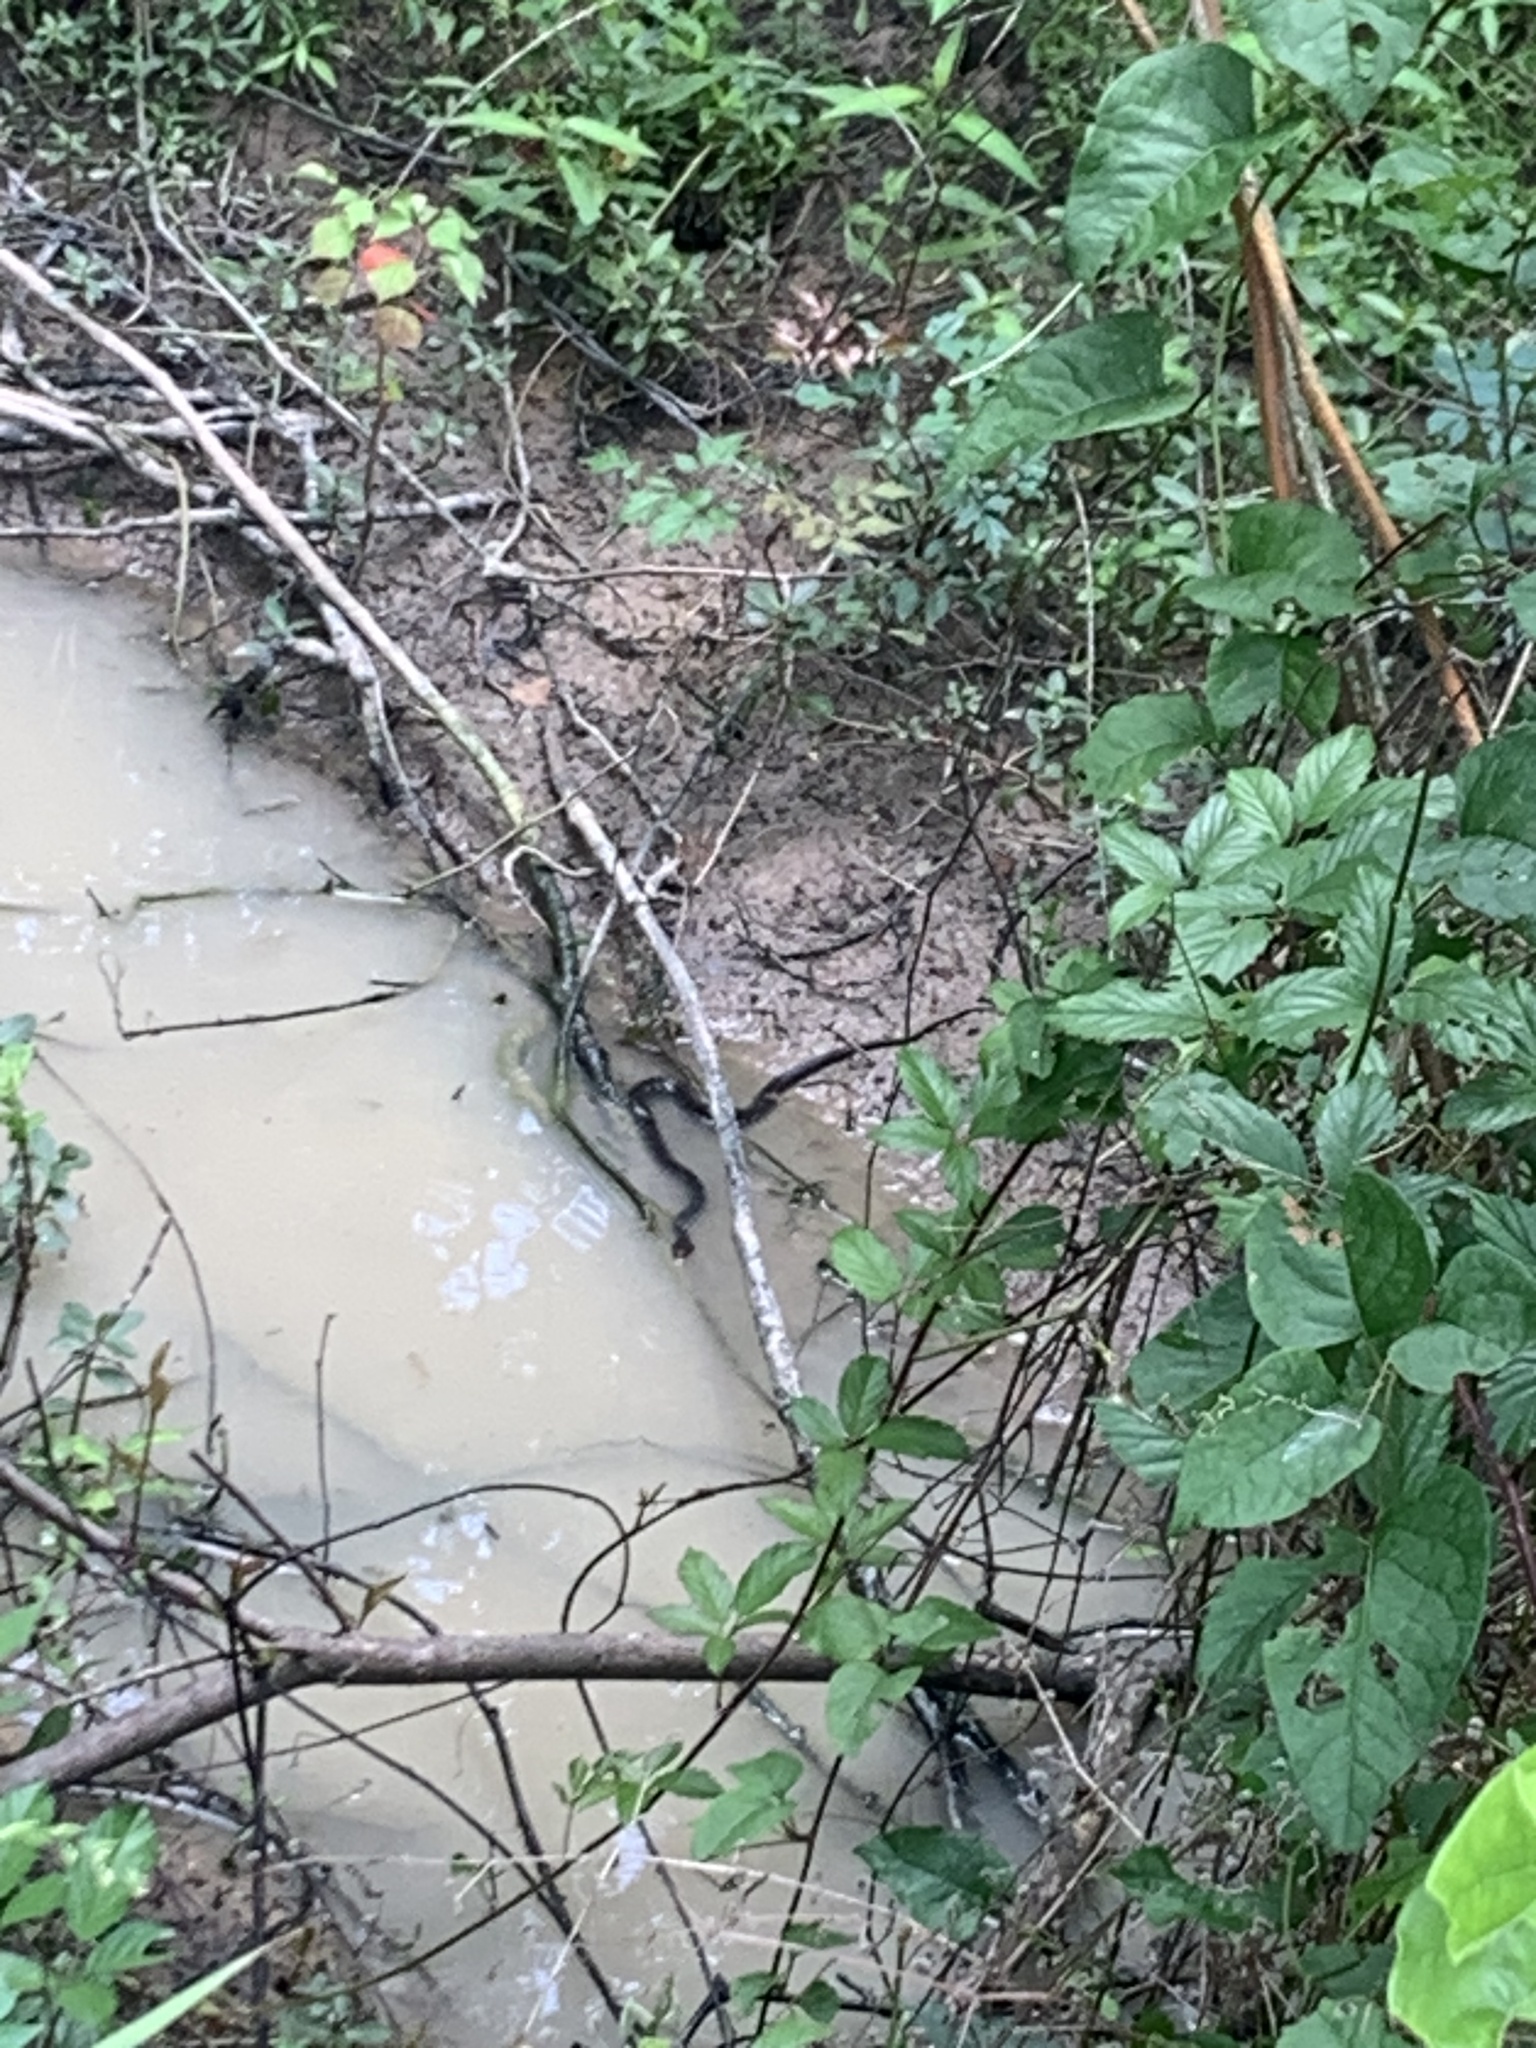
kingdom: Animalia
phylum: Chordata
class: Squamata
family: Colubridae
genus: Nerodia
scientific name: Nerodia erythrogaster
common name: Plainbelly water snake
